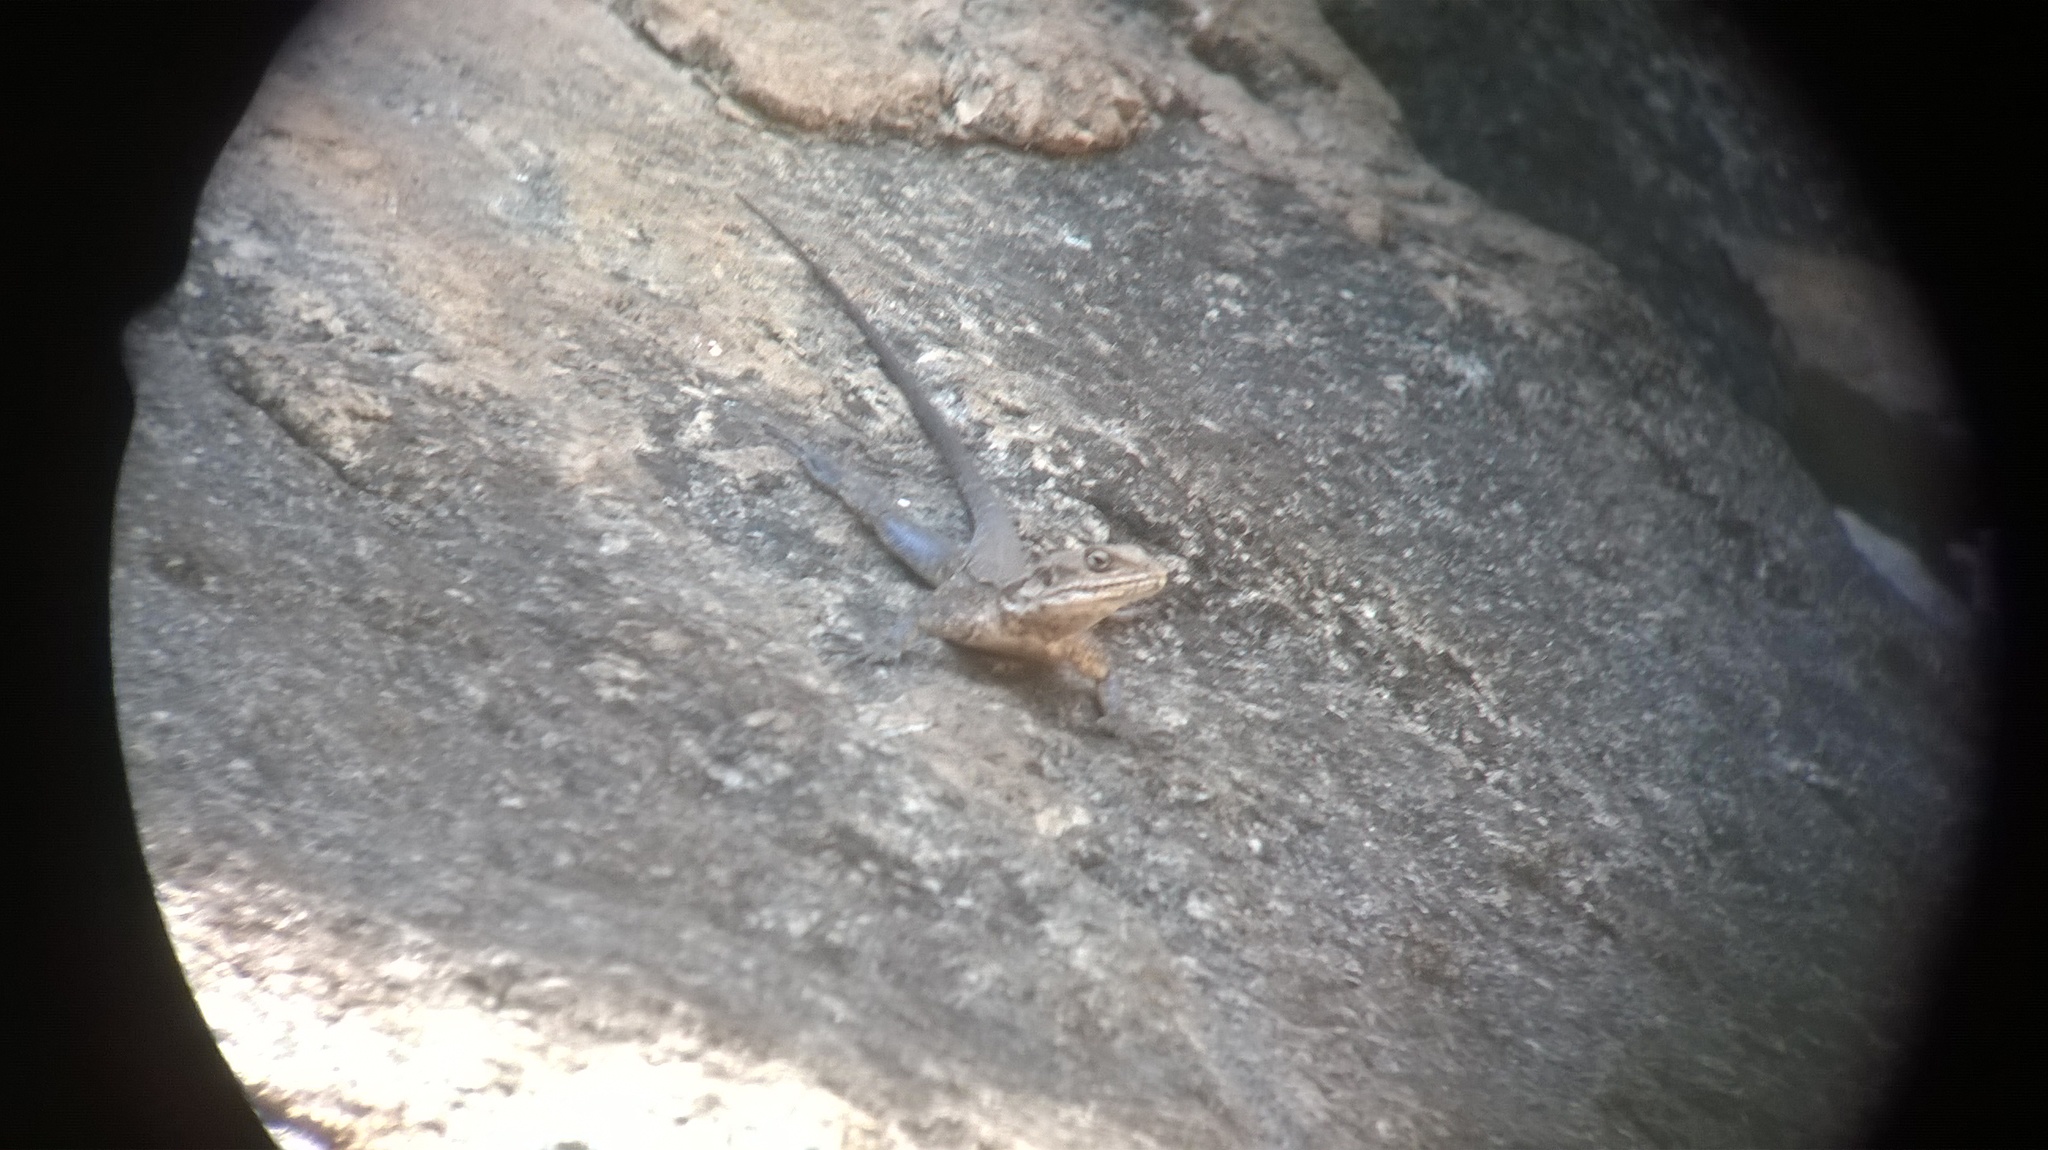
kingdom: Animalia
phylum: Chordata
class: Squamata
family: Agamidae
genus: Laudakia
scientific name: Laudakia tuberculata
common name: Kashmir rock agama
